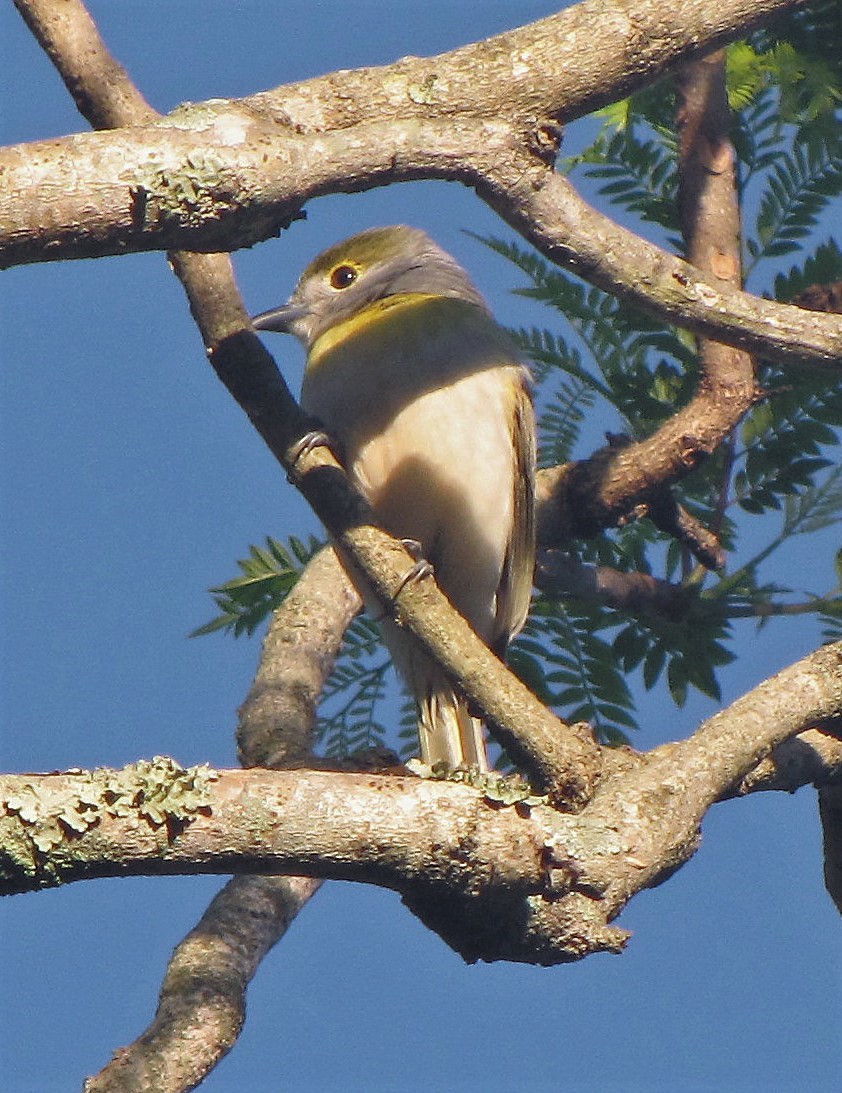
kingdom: Animalia
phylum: Chordata
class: Aves
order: Passeriformes
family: Cotingidae
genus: Pachyramphus
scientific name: Pachyramphus viridis
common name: Green-backed becard
